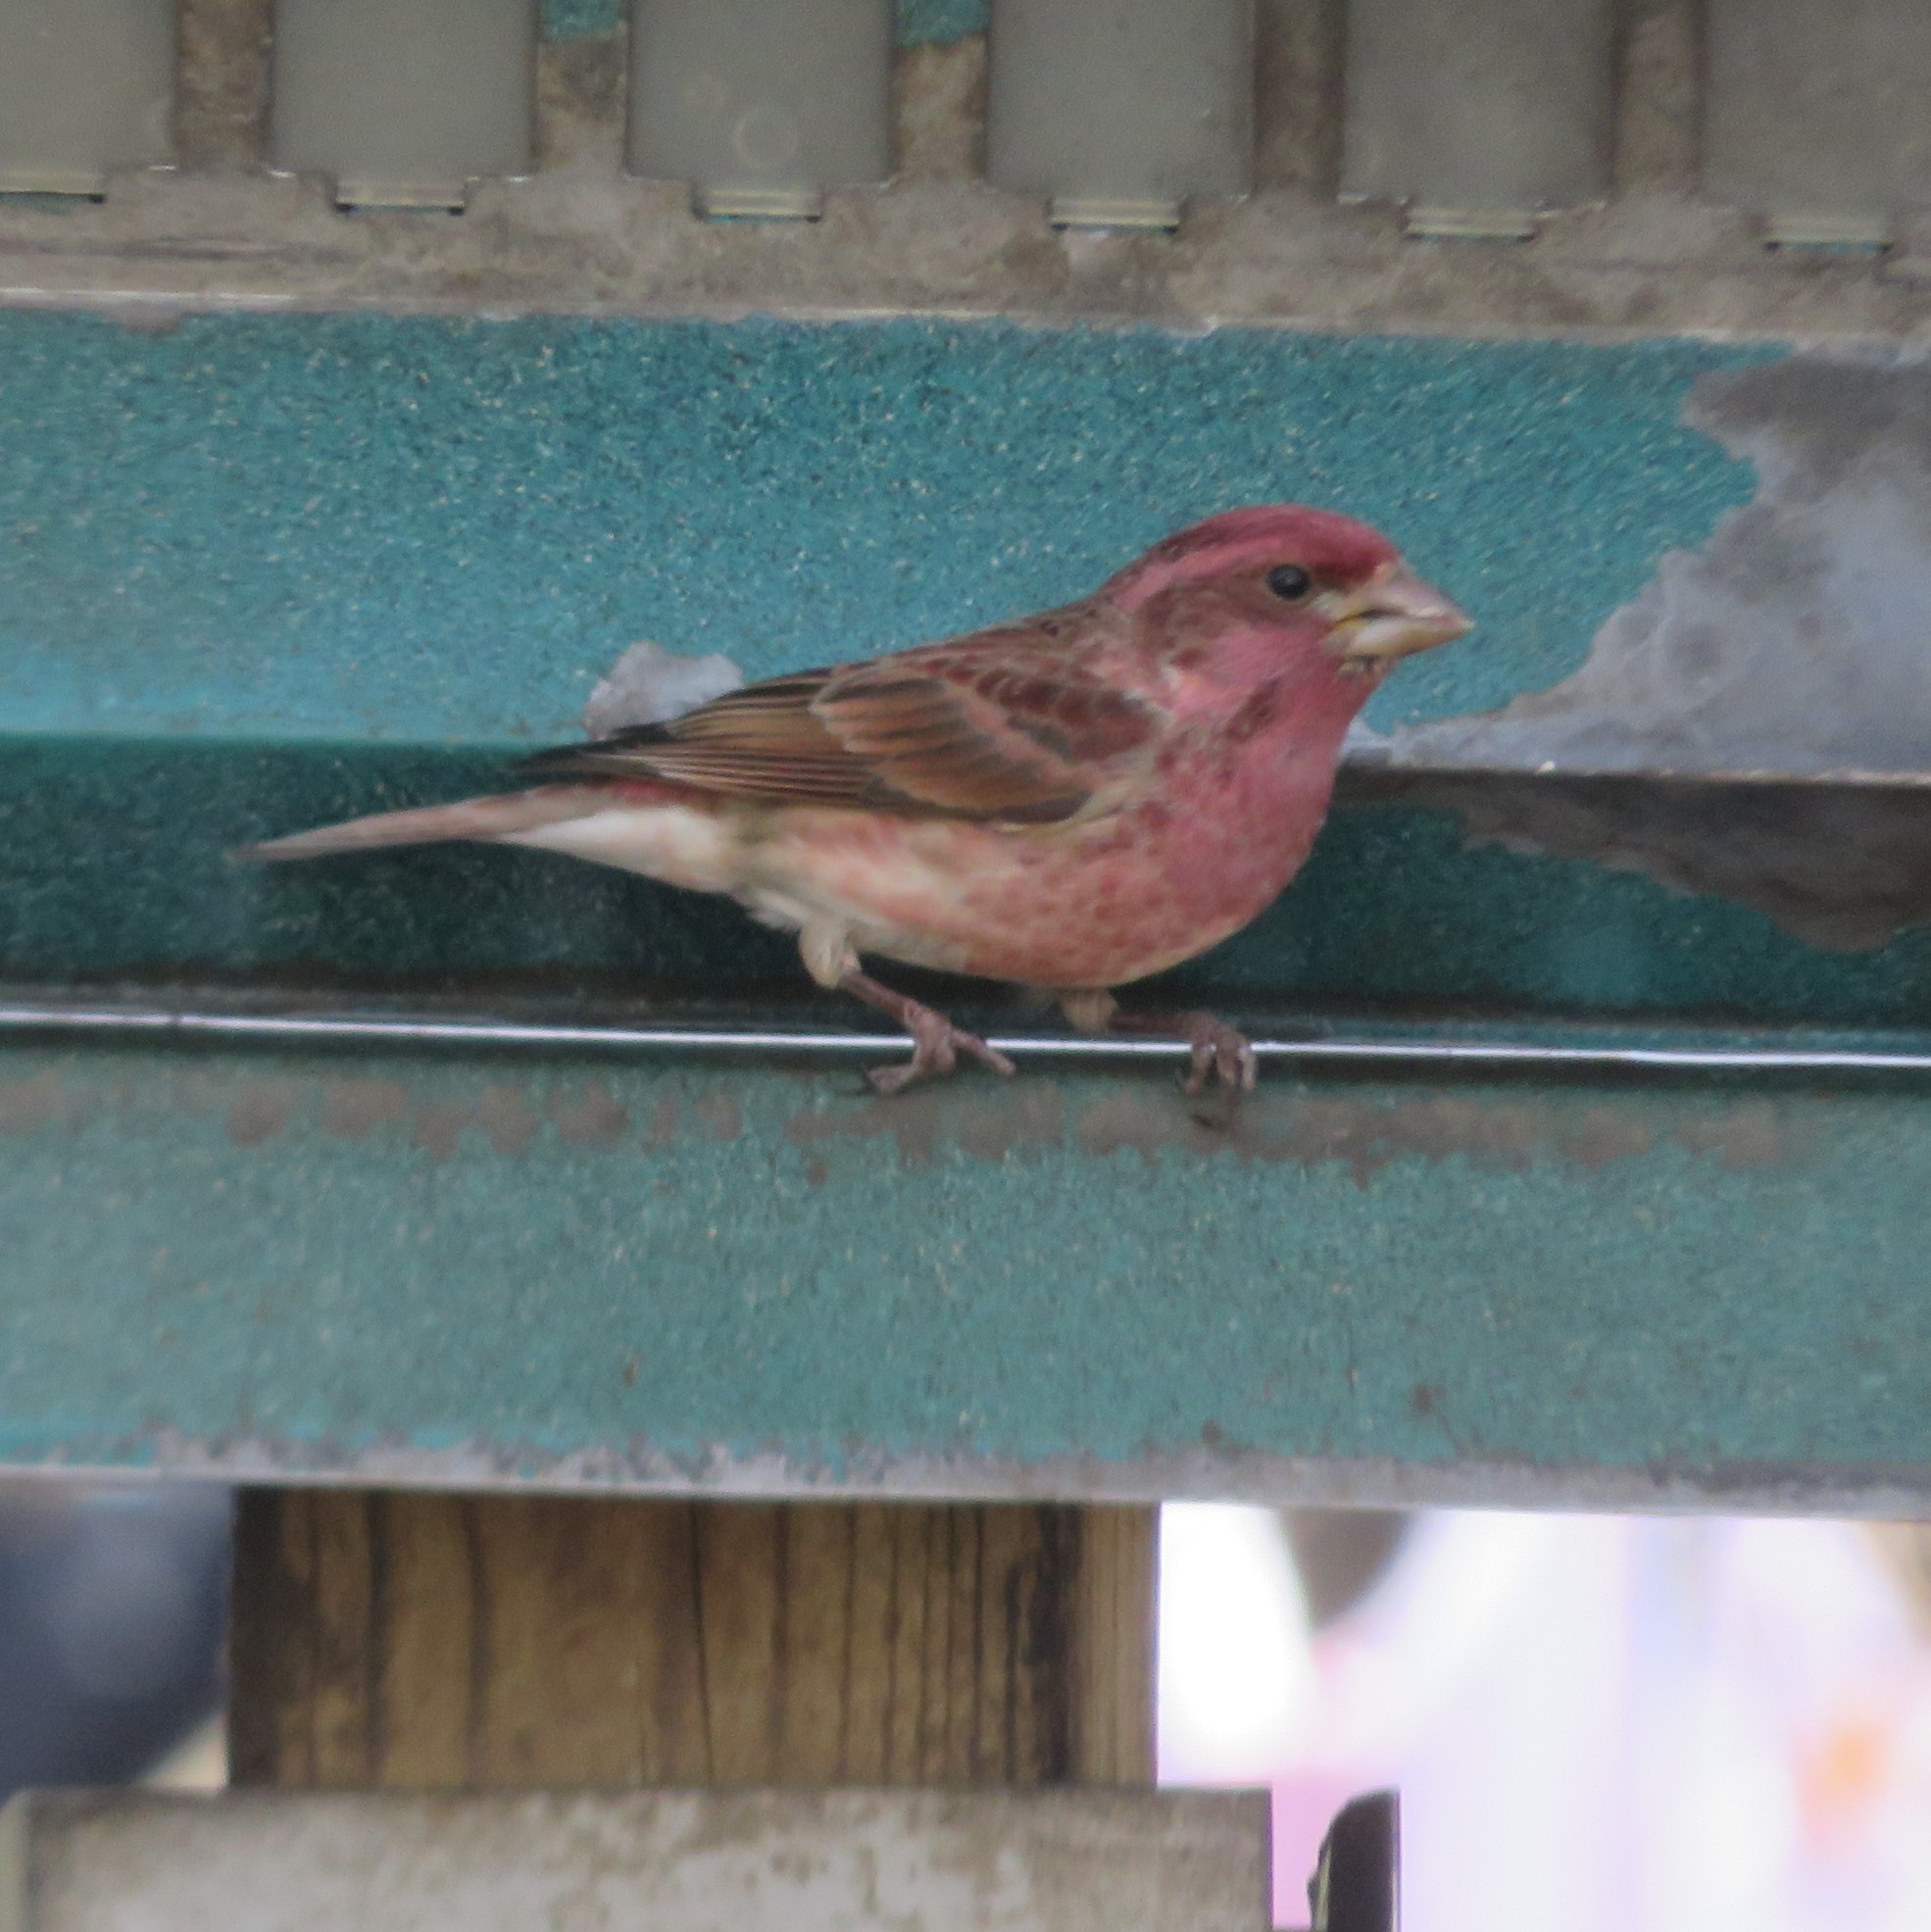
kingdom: Animalia
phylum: Chordata
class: Aves
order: Passeriformes
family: Fringillidae
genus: Haemorhous
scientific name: Haemorhous purpureus
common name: Purple finch
